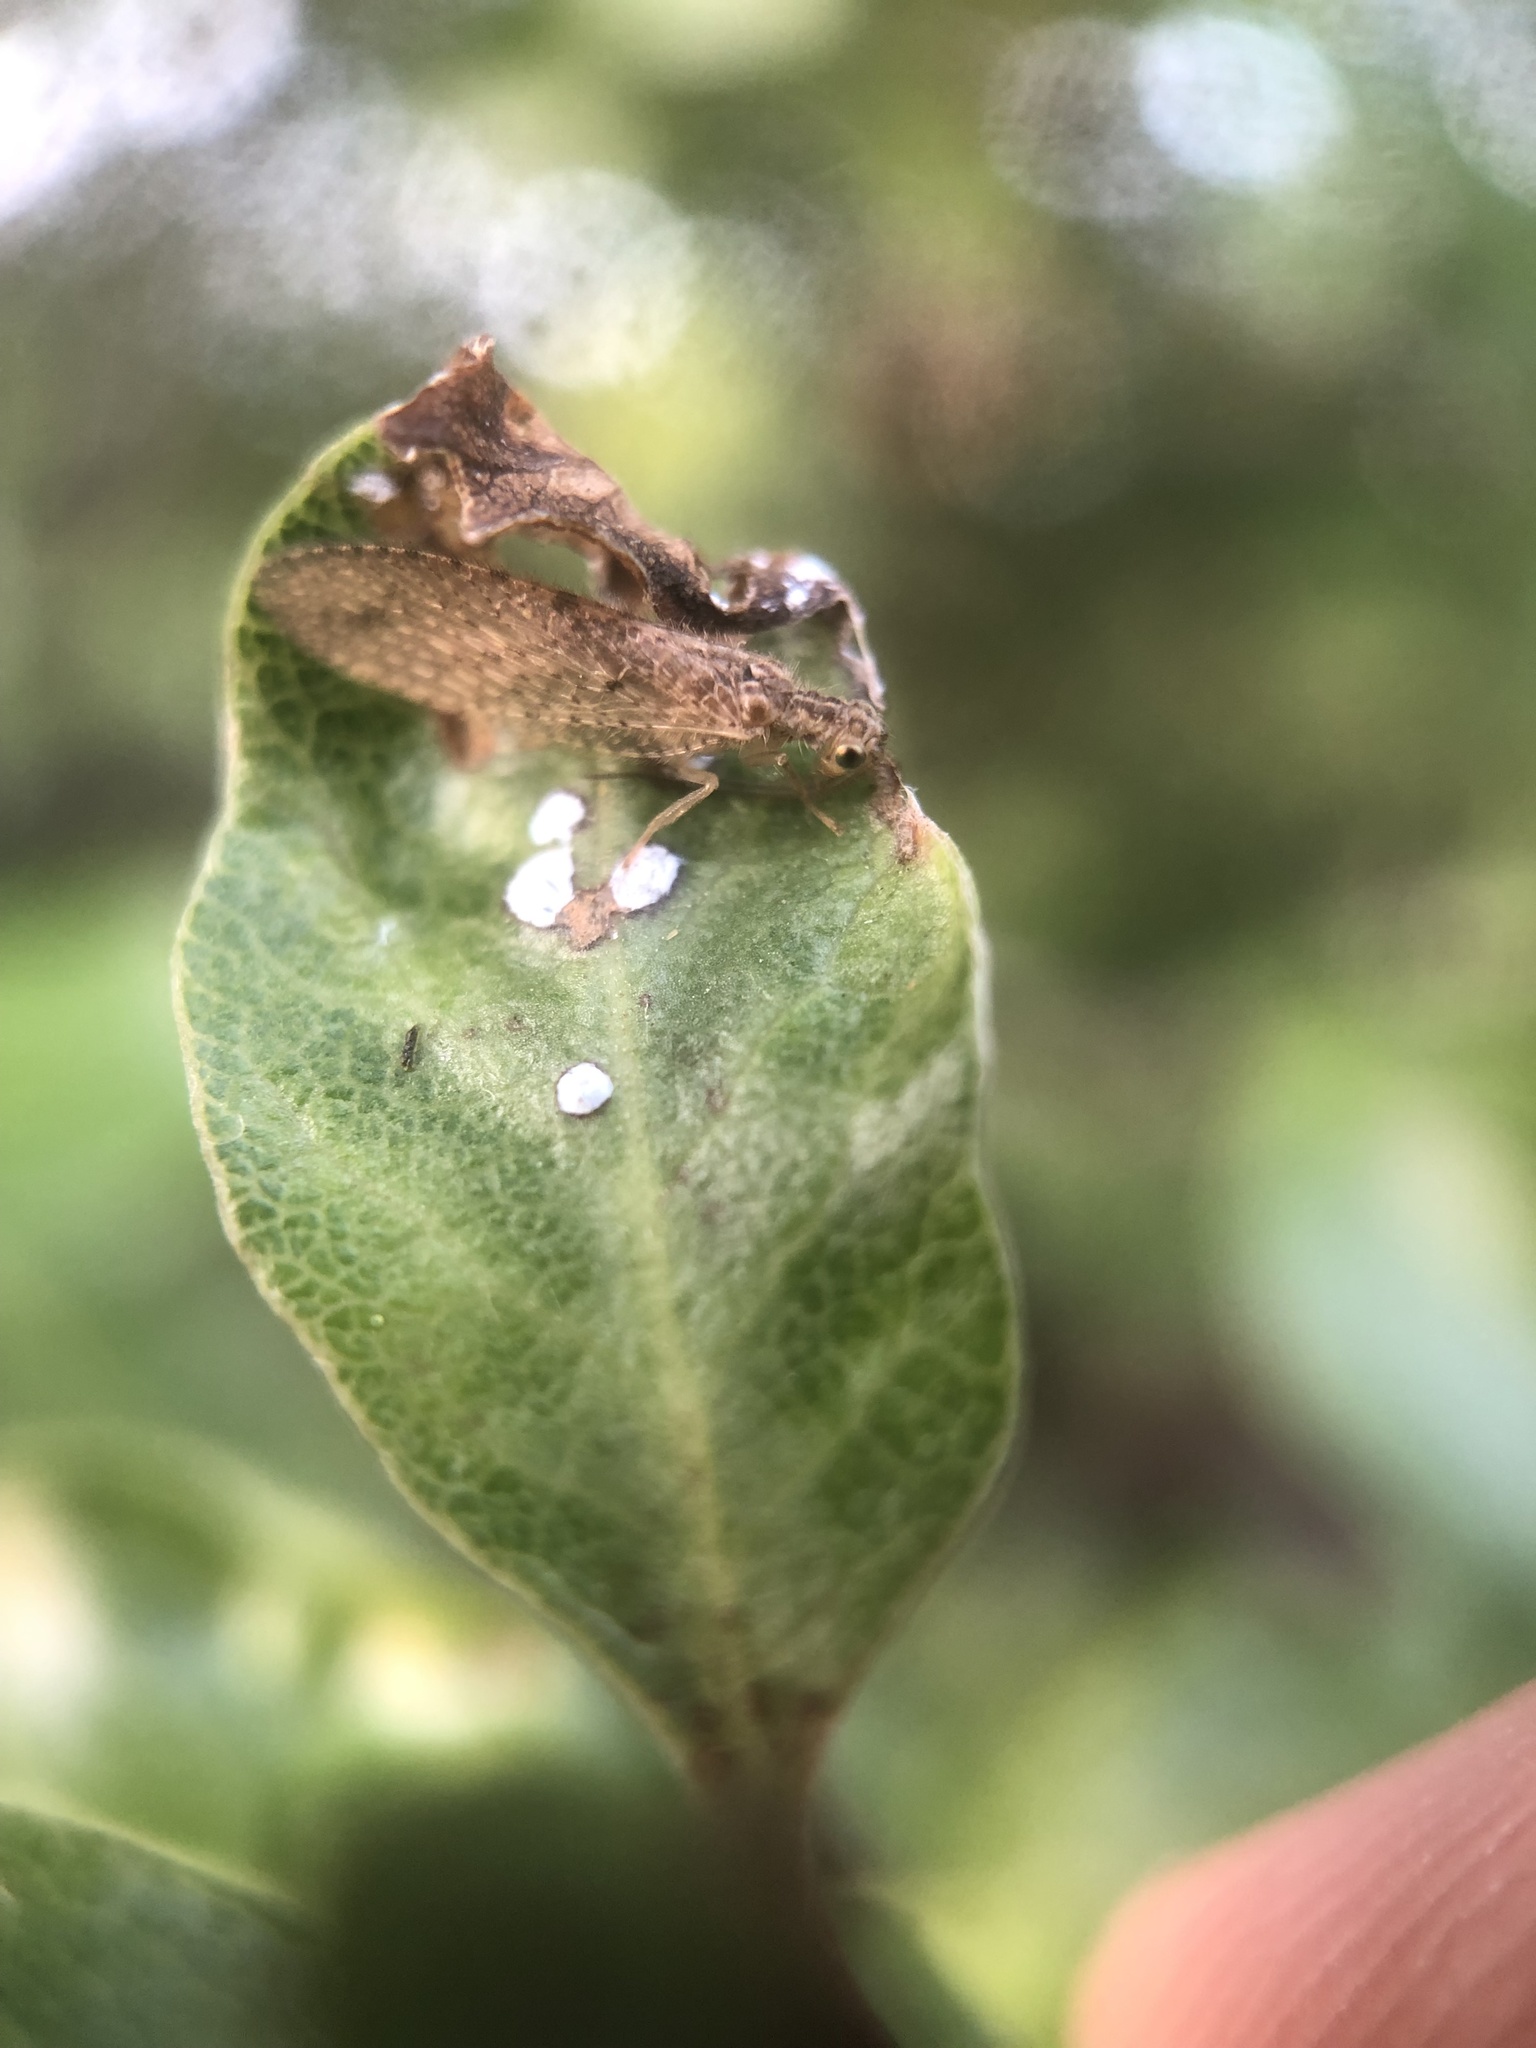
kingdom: Animalia
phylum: Arthropoda
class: Insecta
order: Neuroptera
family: Hemerobiidae
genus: Micromus
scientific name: Micromus tasmaniae
